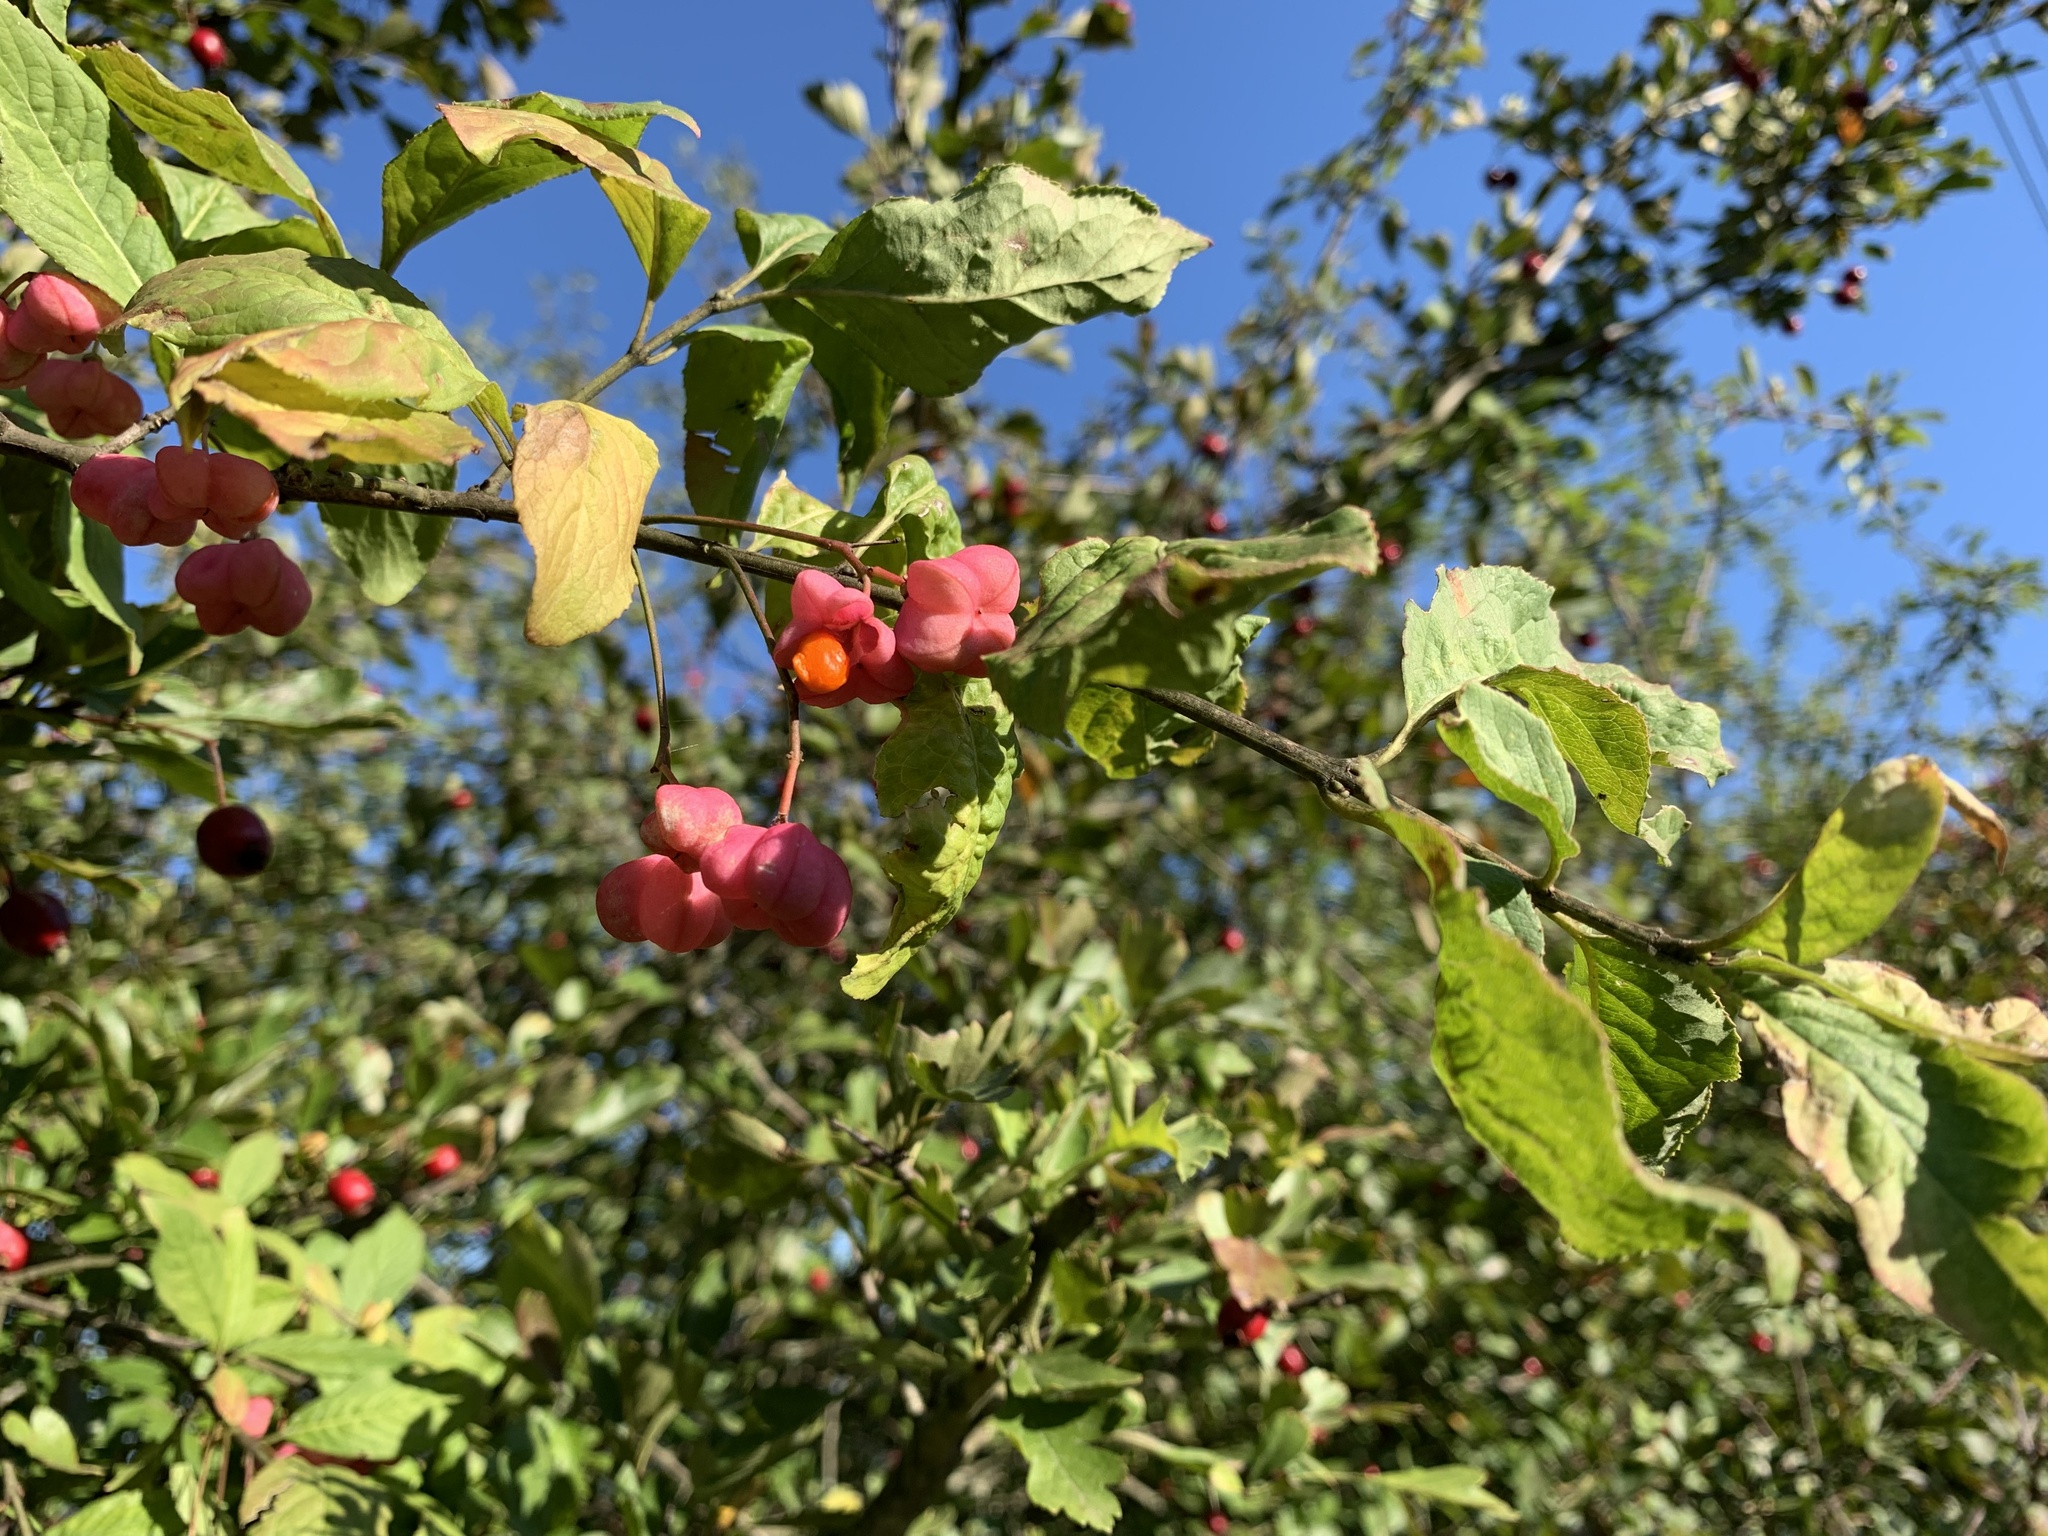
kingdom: Plantae
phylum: Tracheophyta
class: Magnoliopsida
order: Celastrales
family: Celastraceae
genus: Euonymus
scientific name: Euonymus europaeus
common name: Spindle
